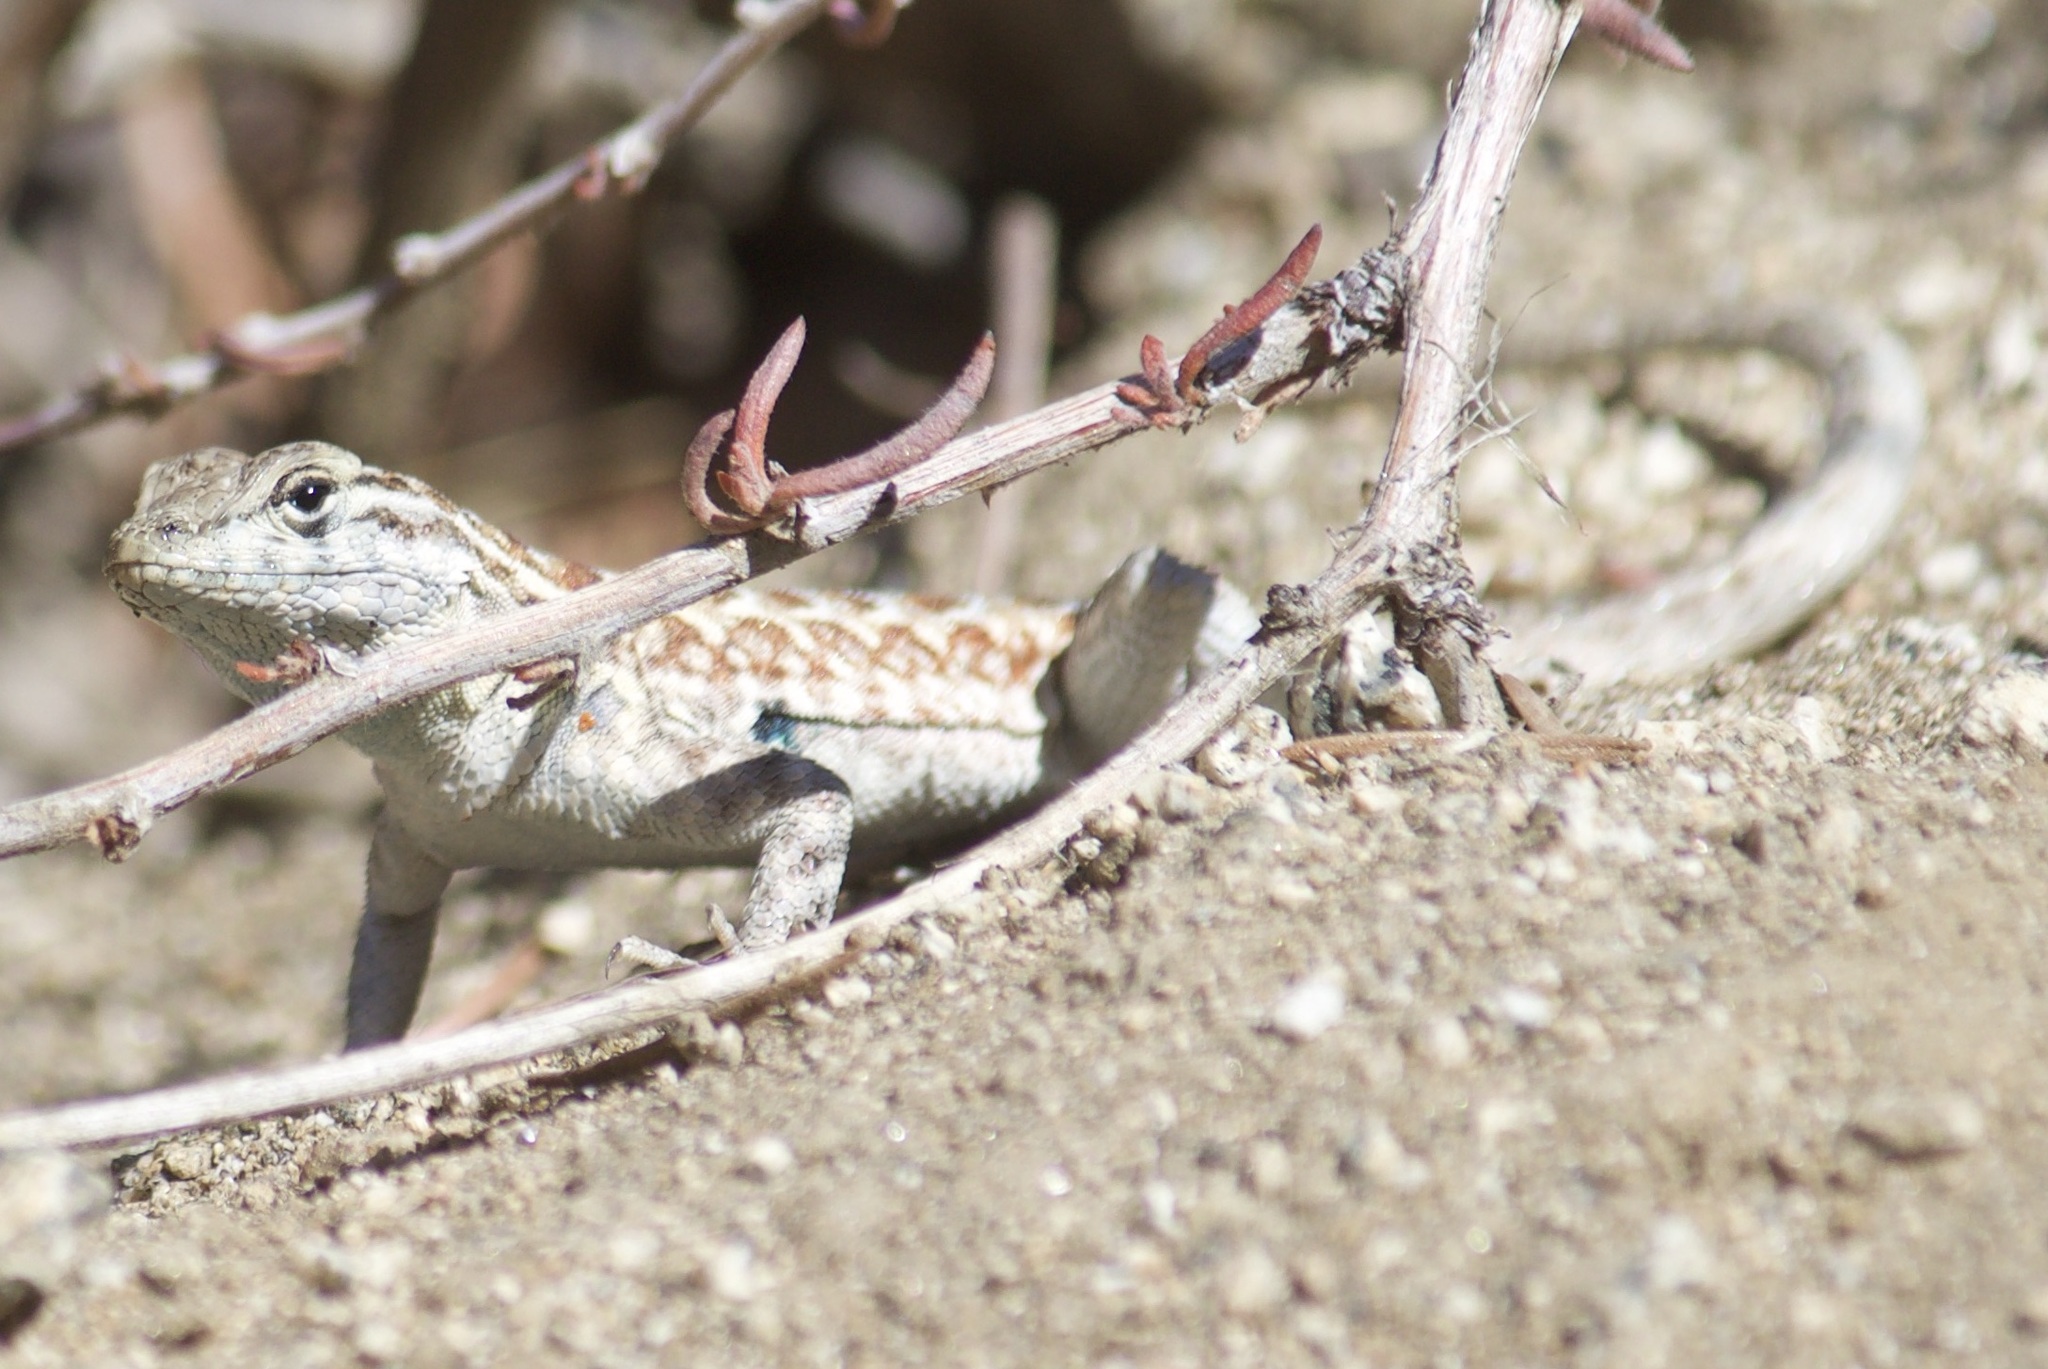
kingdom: Animalia
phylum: Chordata
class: Squamata
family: Phrynosomatidae
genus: Uta
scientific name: Uta stansburiana
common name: Side-blotched lizard
